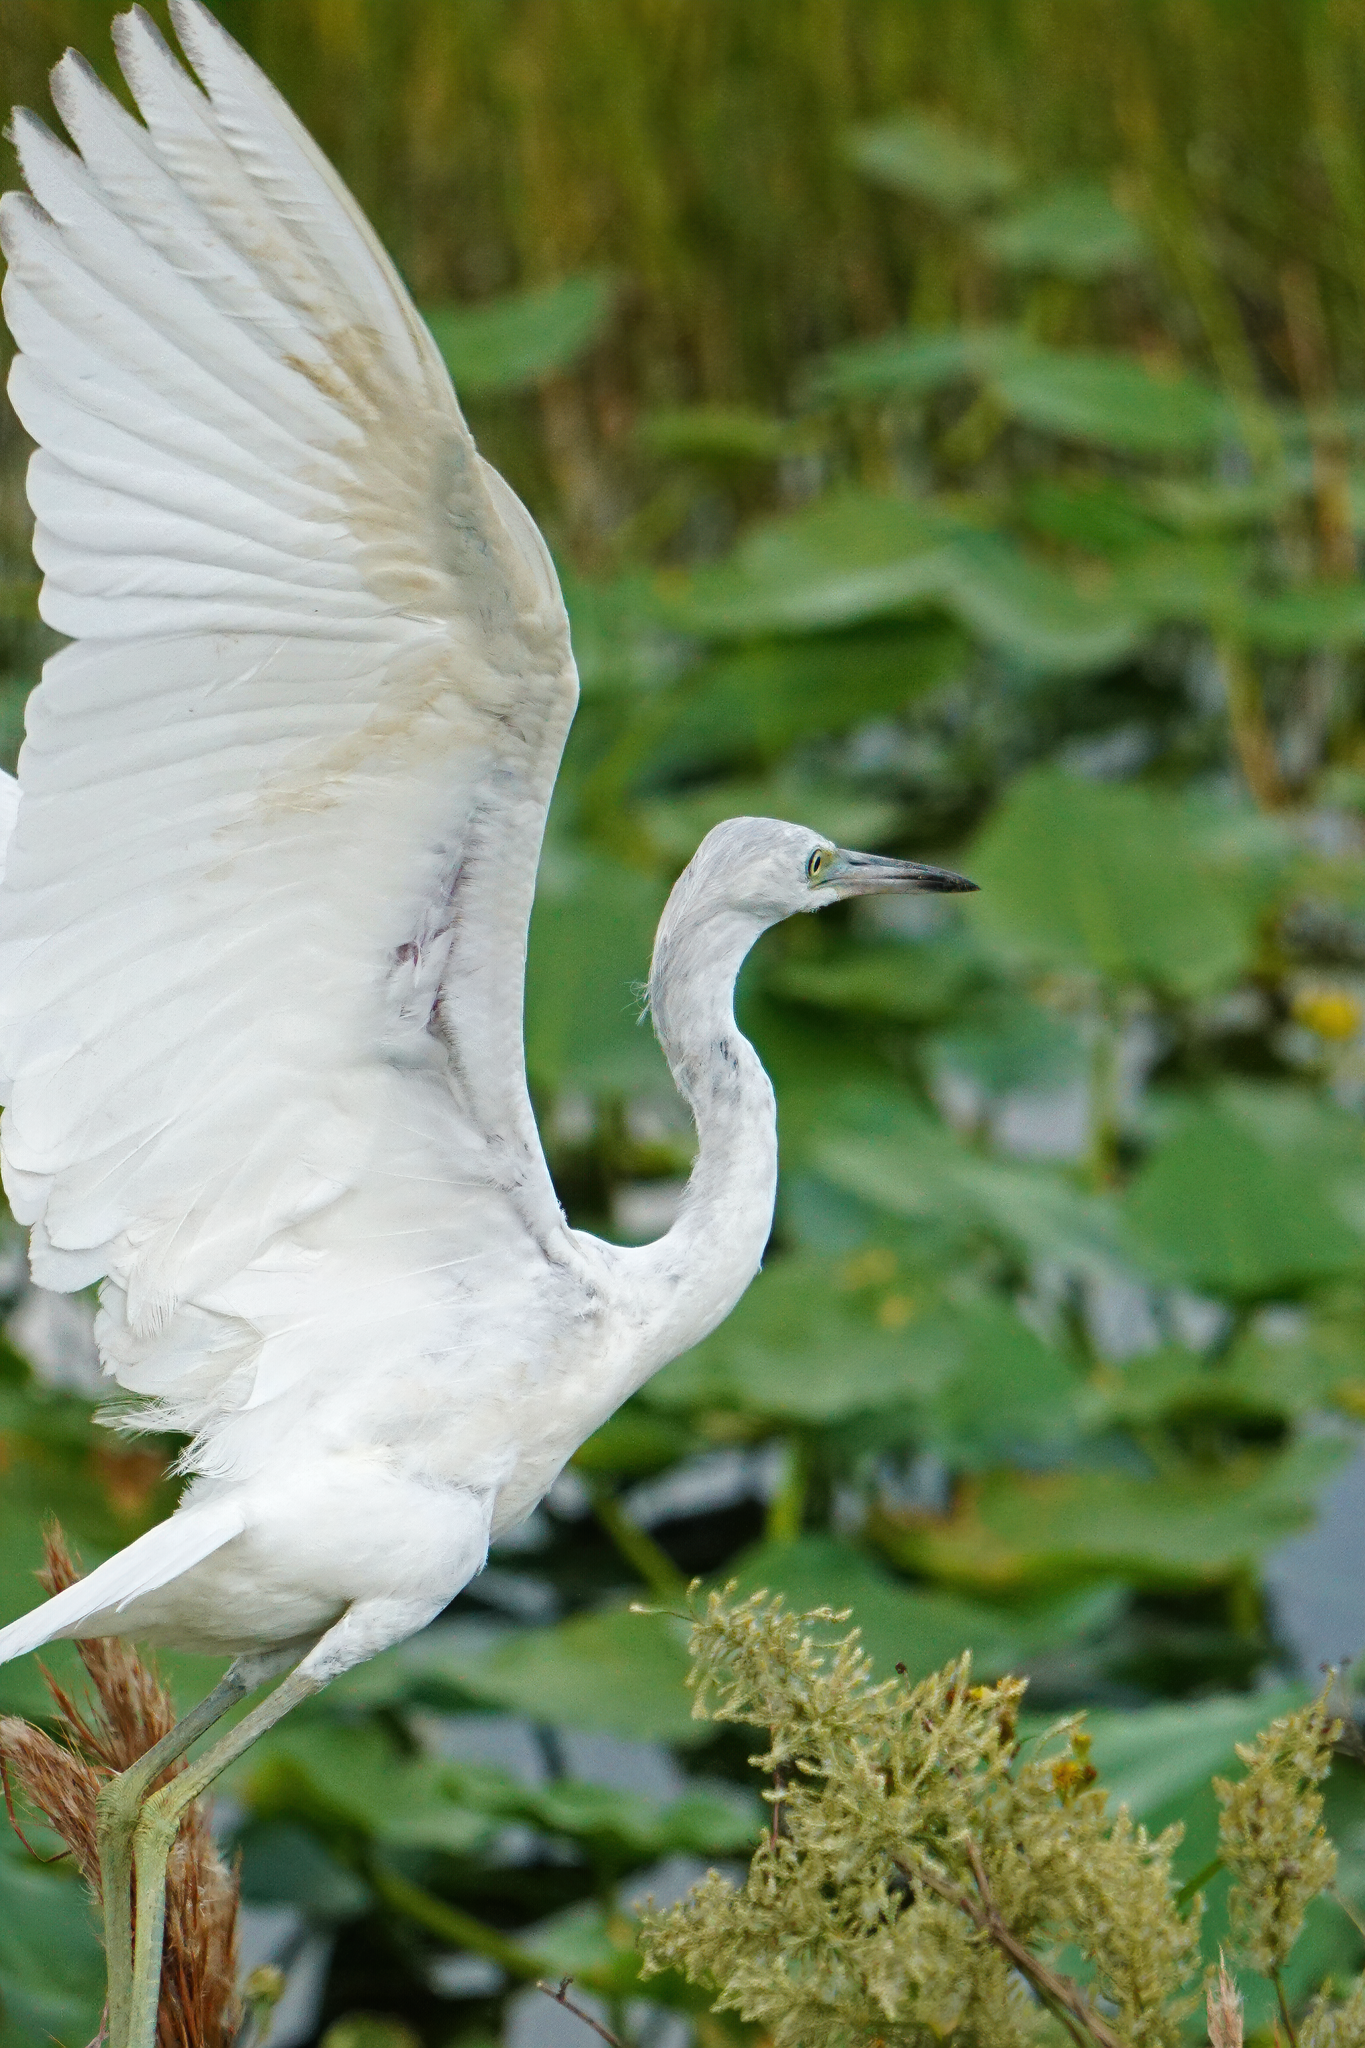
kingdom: Animalia
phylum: Chordata
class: Aves
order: Pelecaniformes
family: Ardeidae
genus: Egretta
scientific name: Egretta caerulea
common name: Little blue heron
